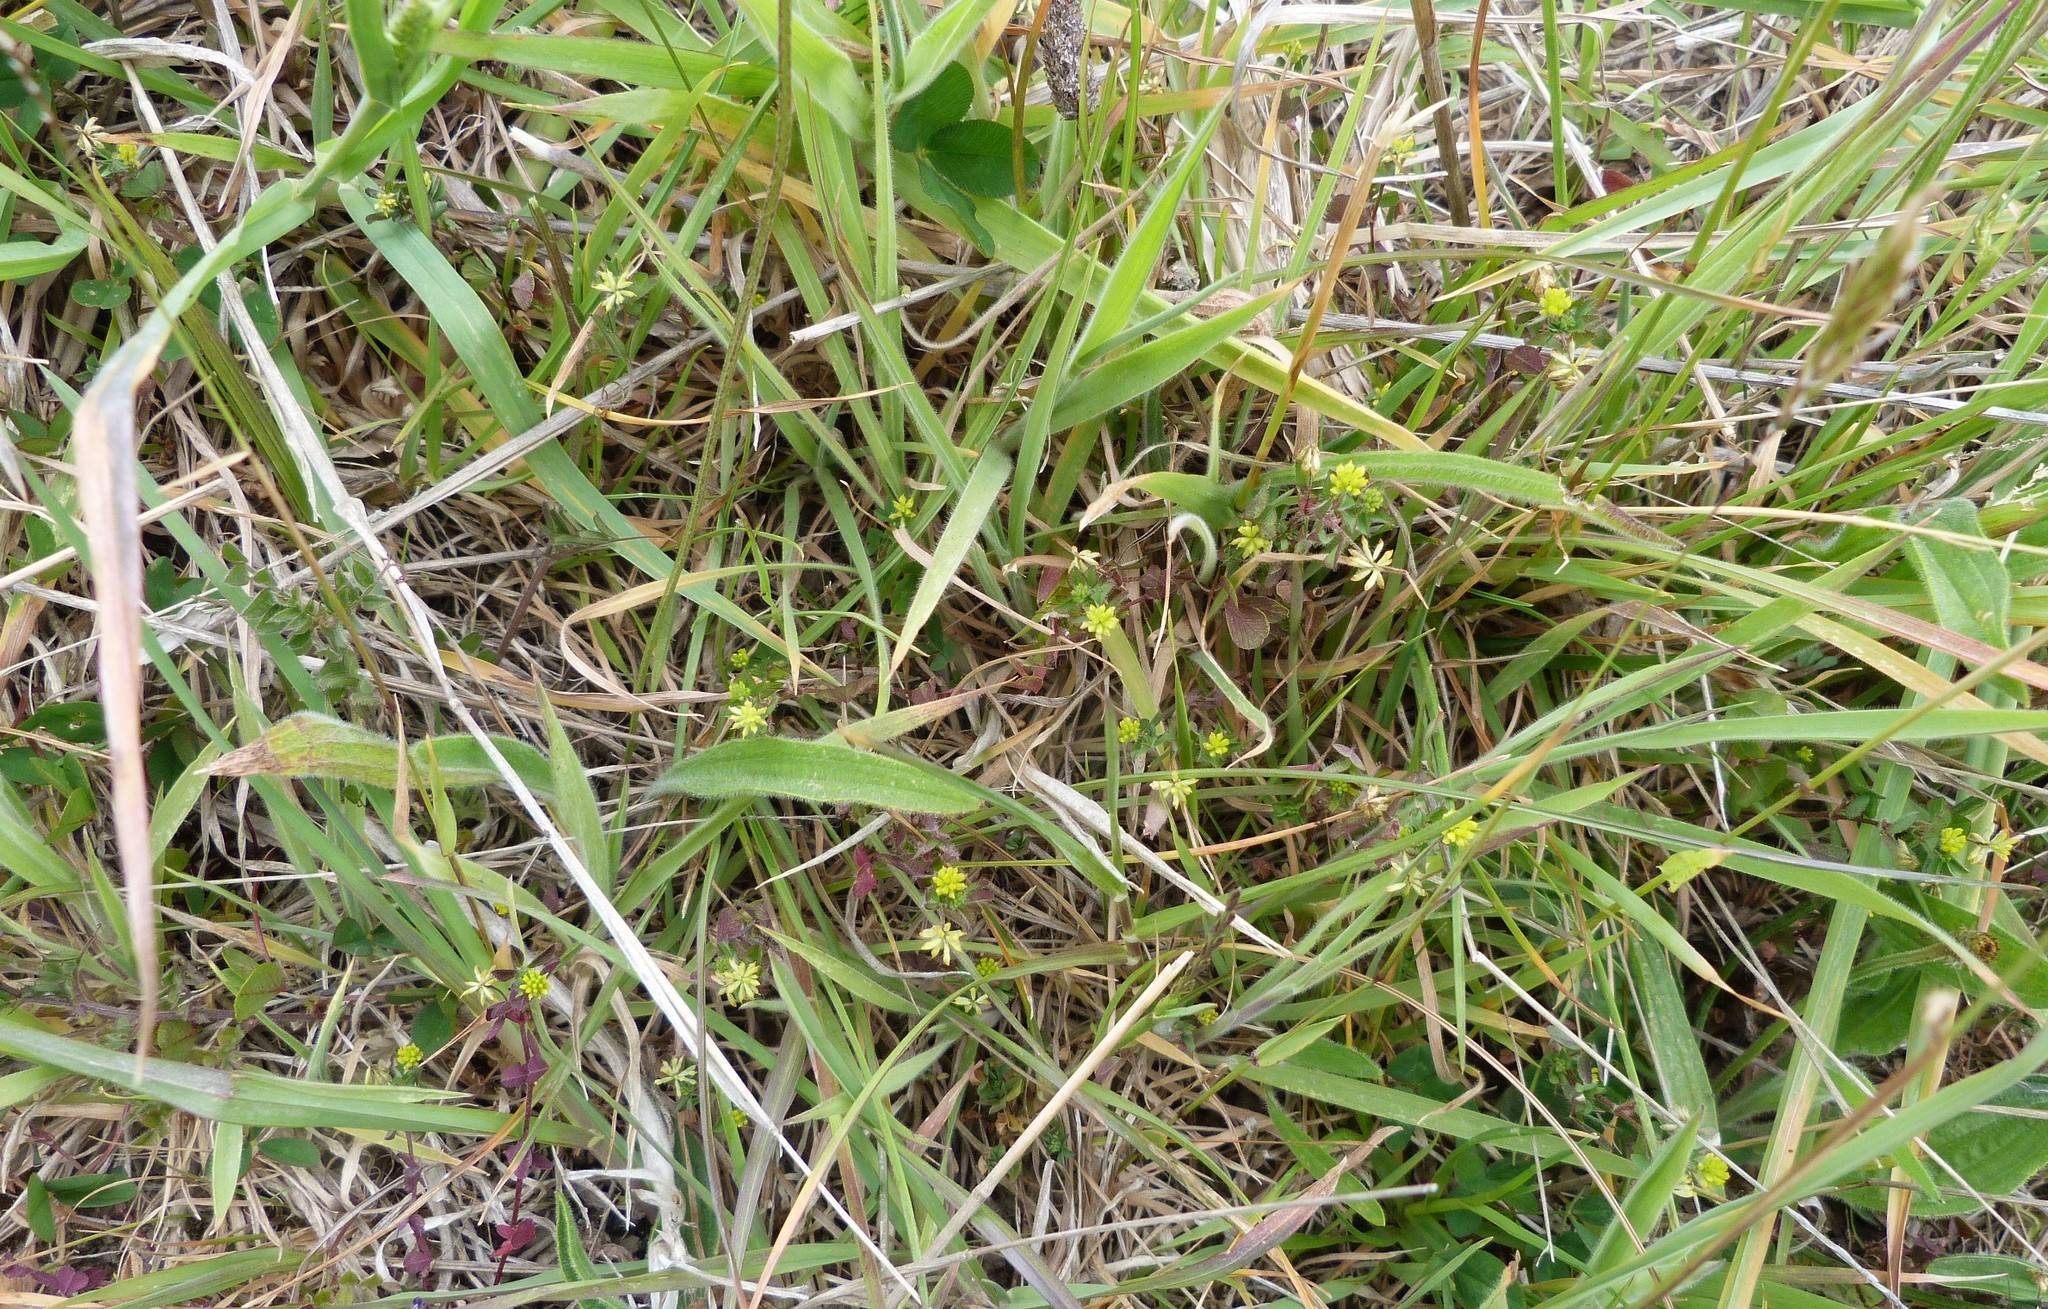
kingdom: Plantae
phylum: Tracheophyta
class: Magnoliopsida
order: Fabales
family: Fabaceae
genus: Trifolium
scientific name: Trifolium dubium
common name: Suckling clover
